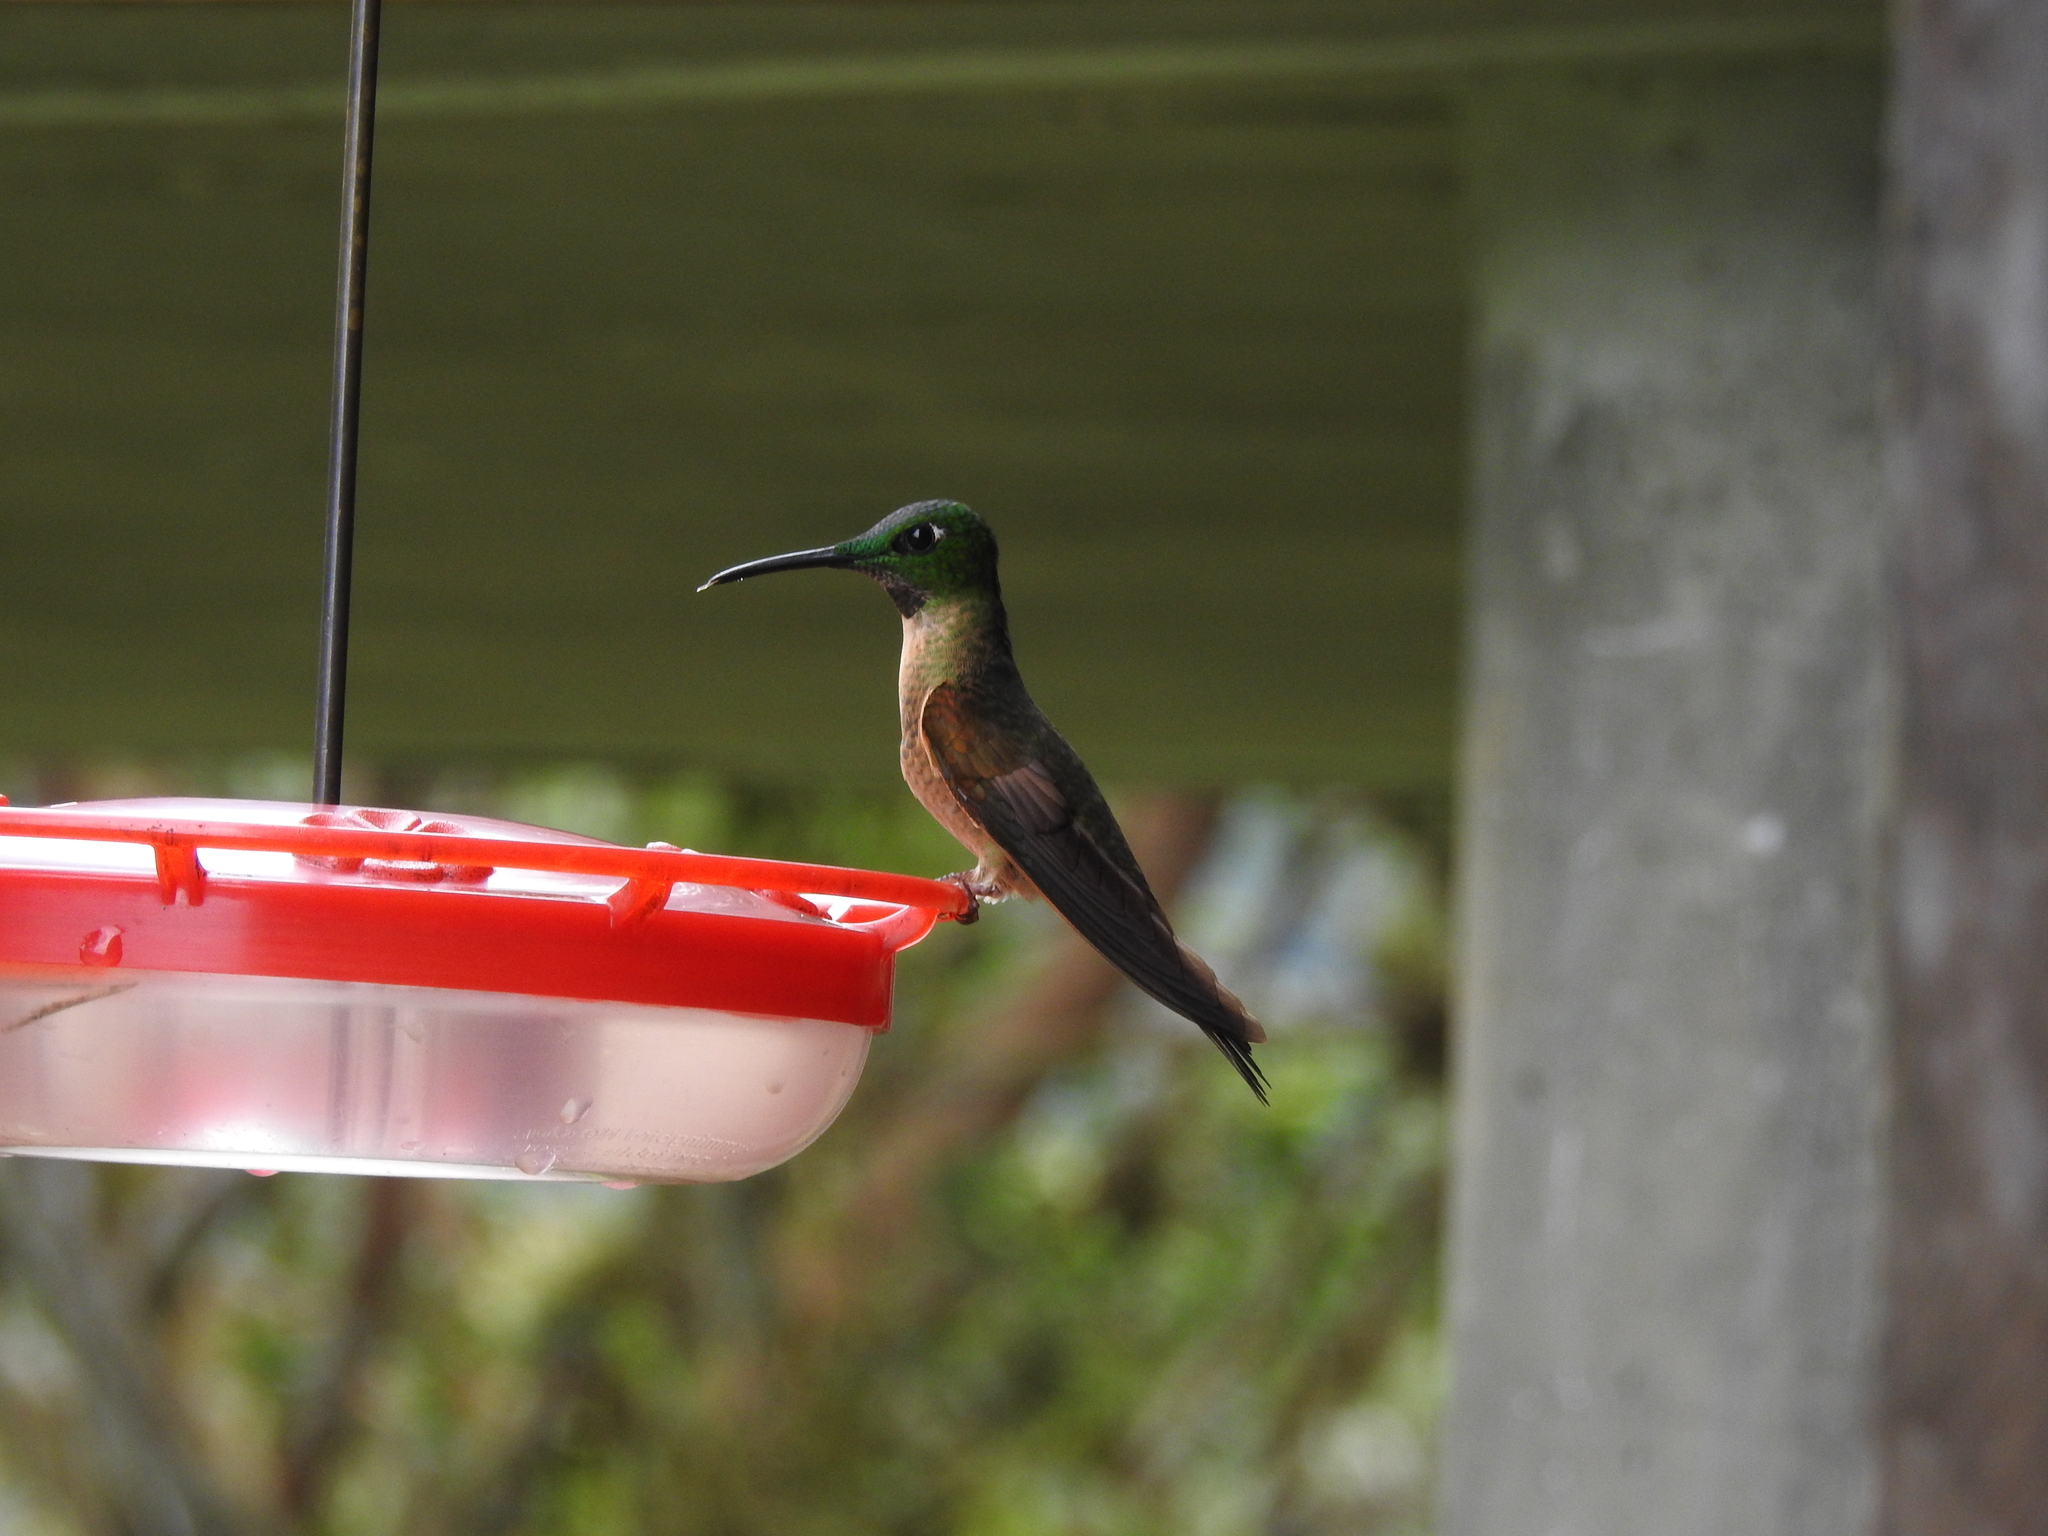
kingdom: Animalia
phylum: Chordata
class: Aves
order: Apodiformes
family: Trochilidae
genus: Heliodoxa
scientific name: Heliodoxa rubinoides
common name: Fawn-breasted brilliant
